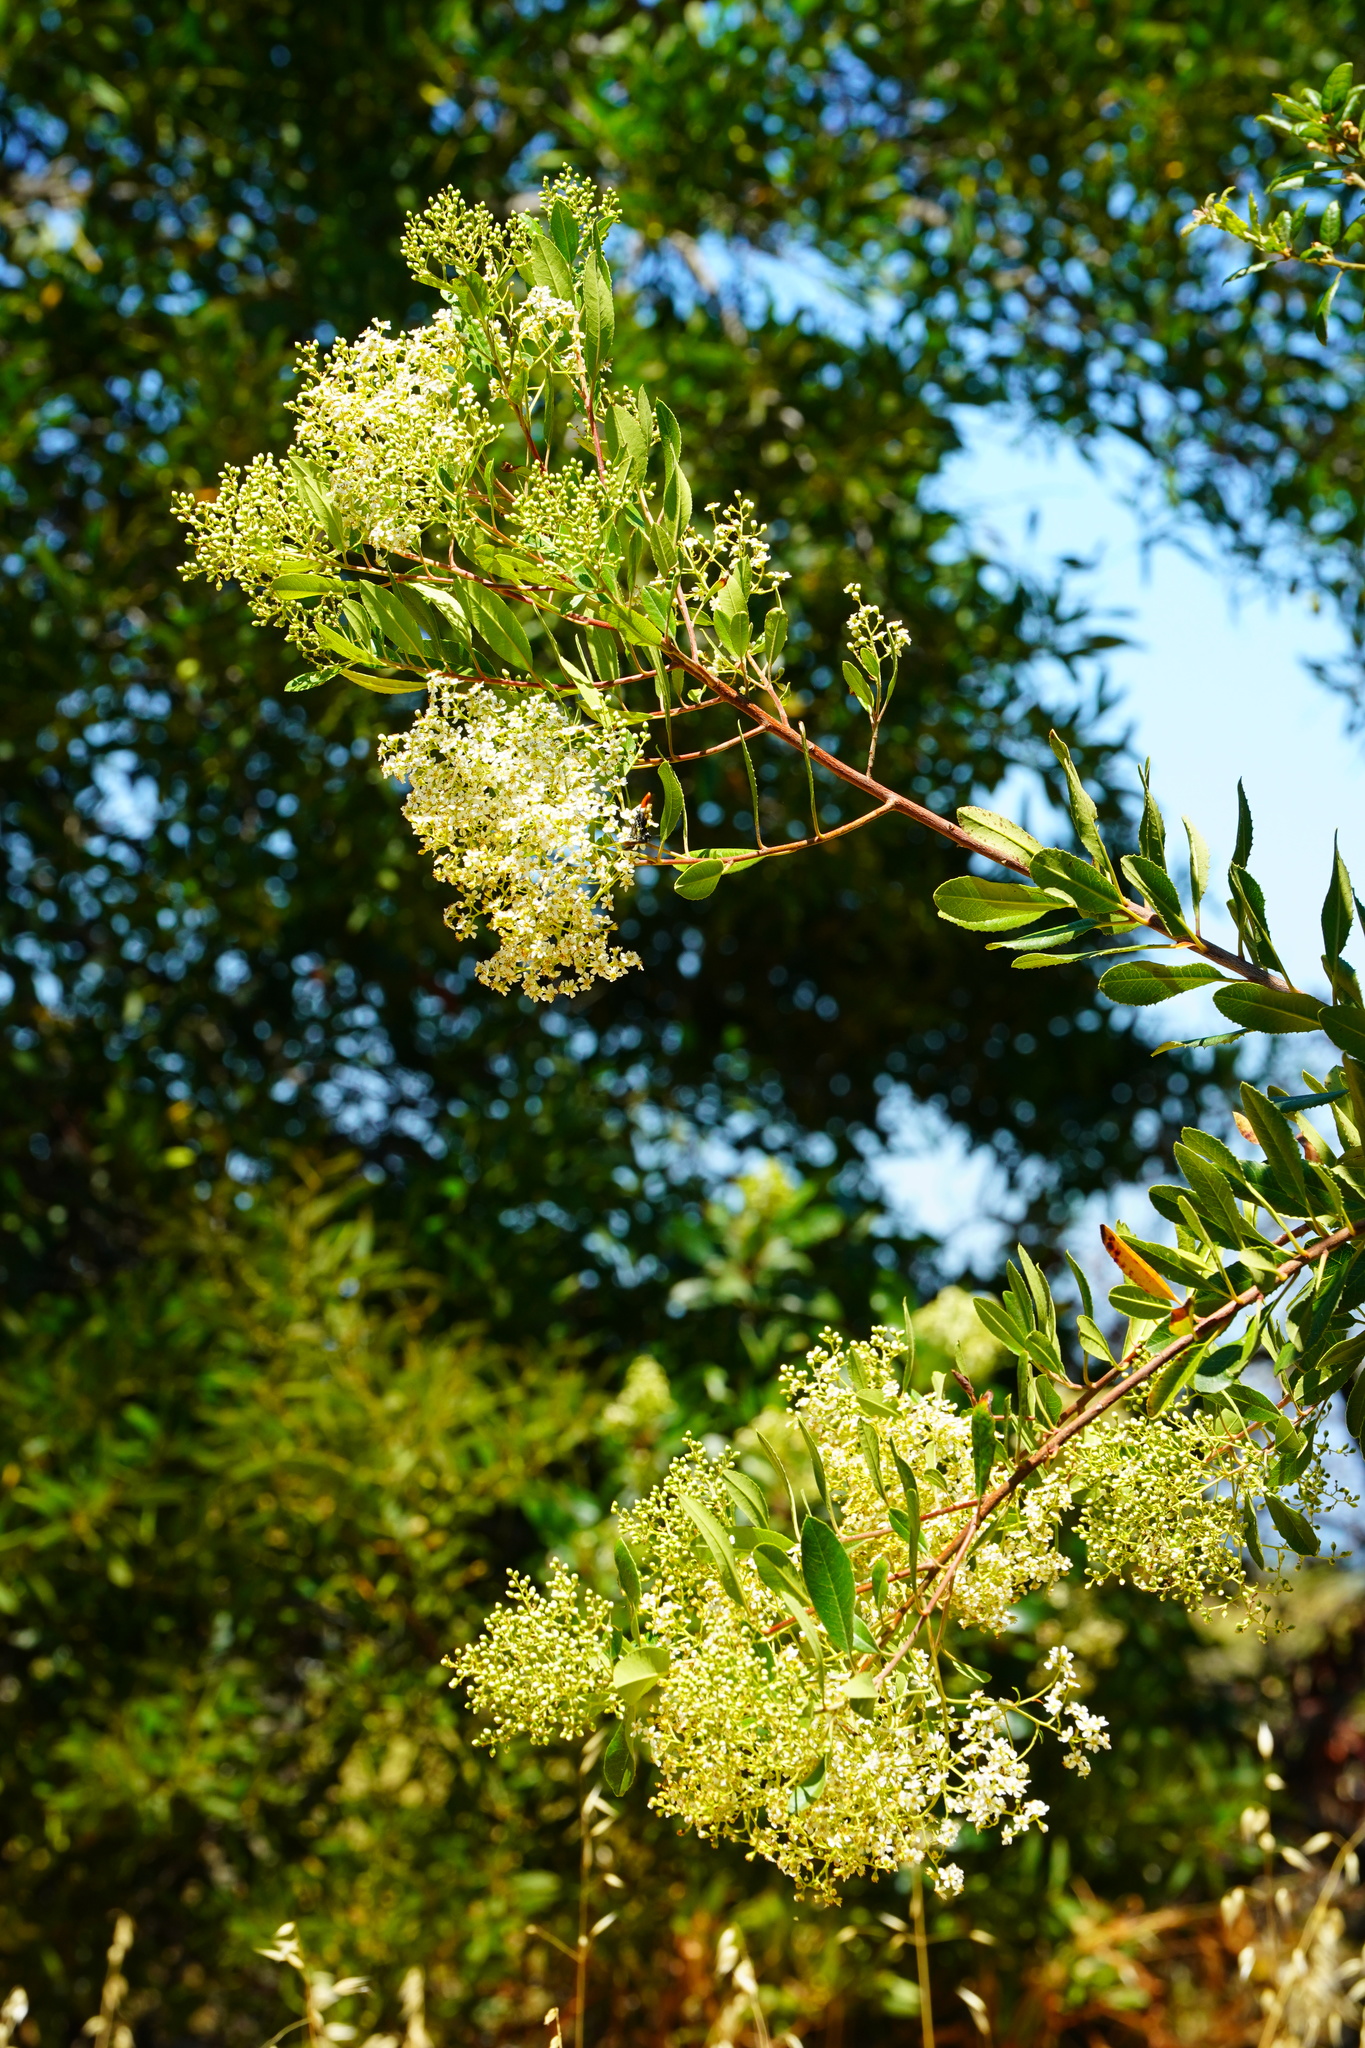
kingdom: Plantae
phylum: Tracheophyta
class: Magnoliopsida
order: Rosales
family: Rosaceae
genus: Heteromeles
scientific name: Heteromeles arbutifolia
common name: California-holly
